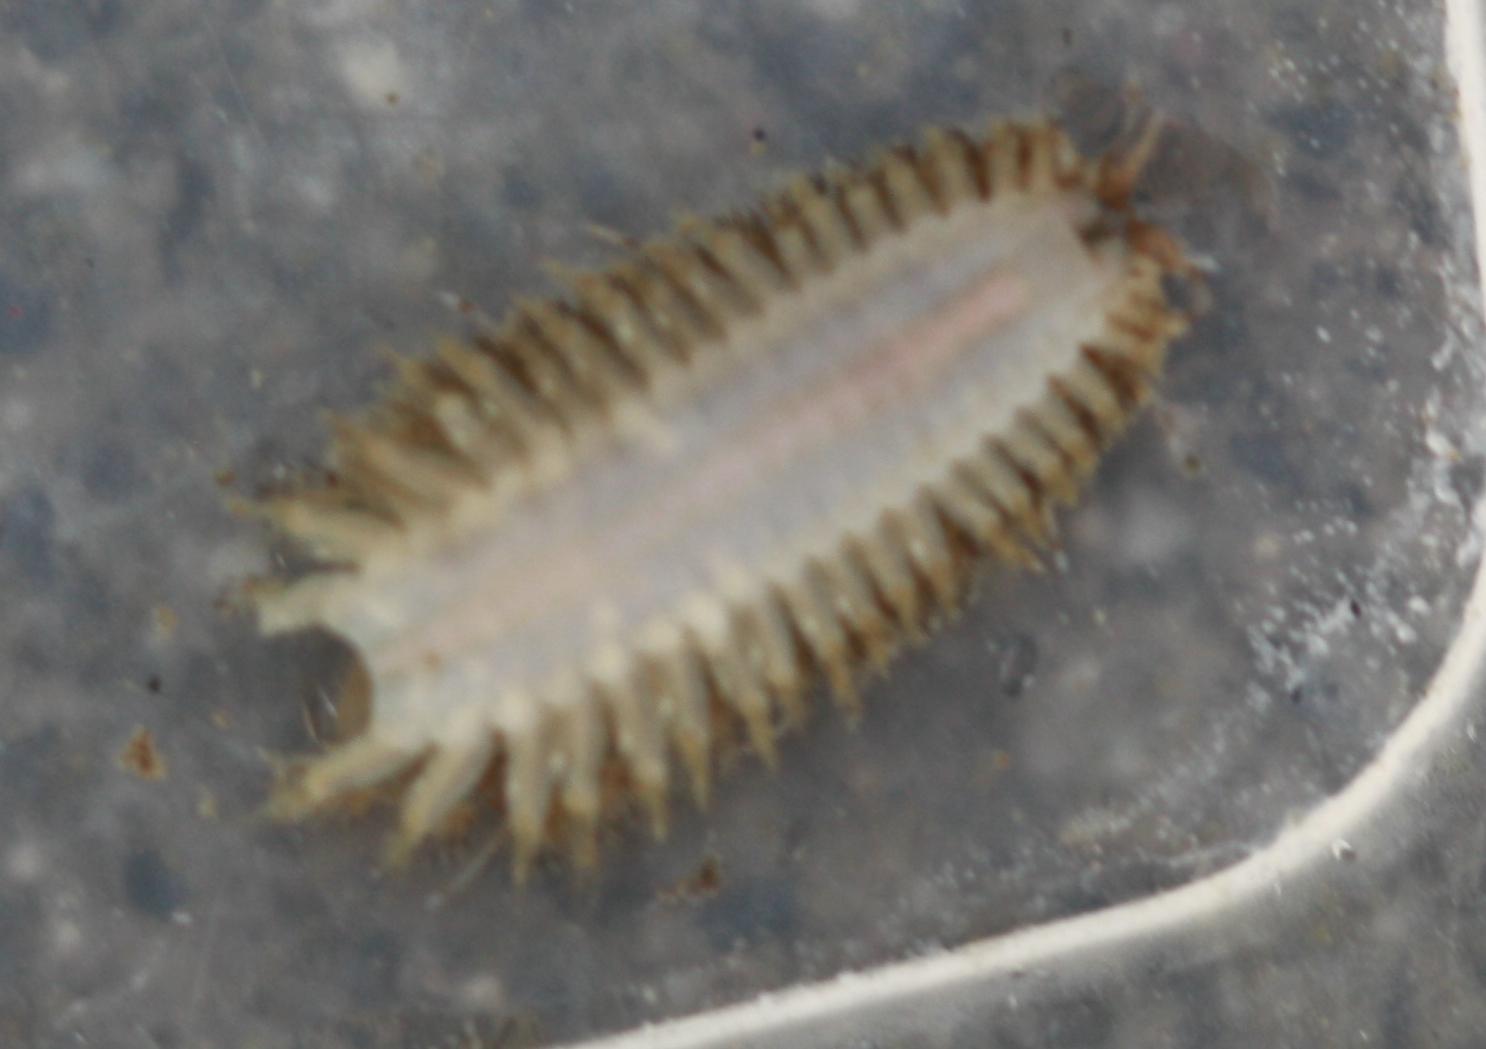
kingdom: Animalia
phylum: Annelida
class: Polychaeta
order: Phyllodocida
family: Polynoidae
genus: Harmothoe
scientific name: Harmothoe imbricata
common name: Fifteen-scaled worm
